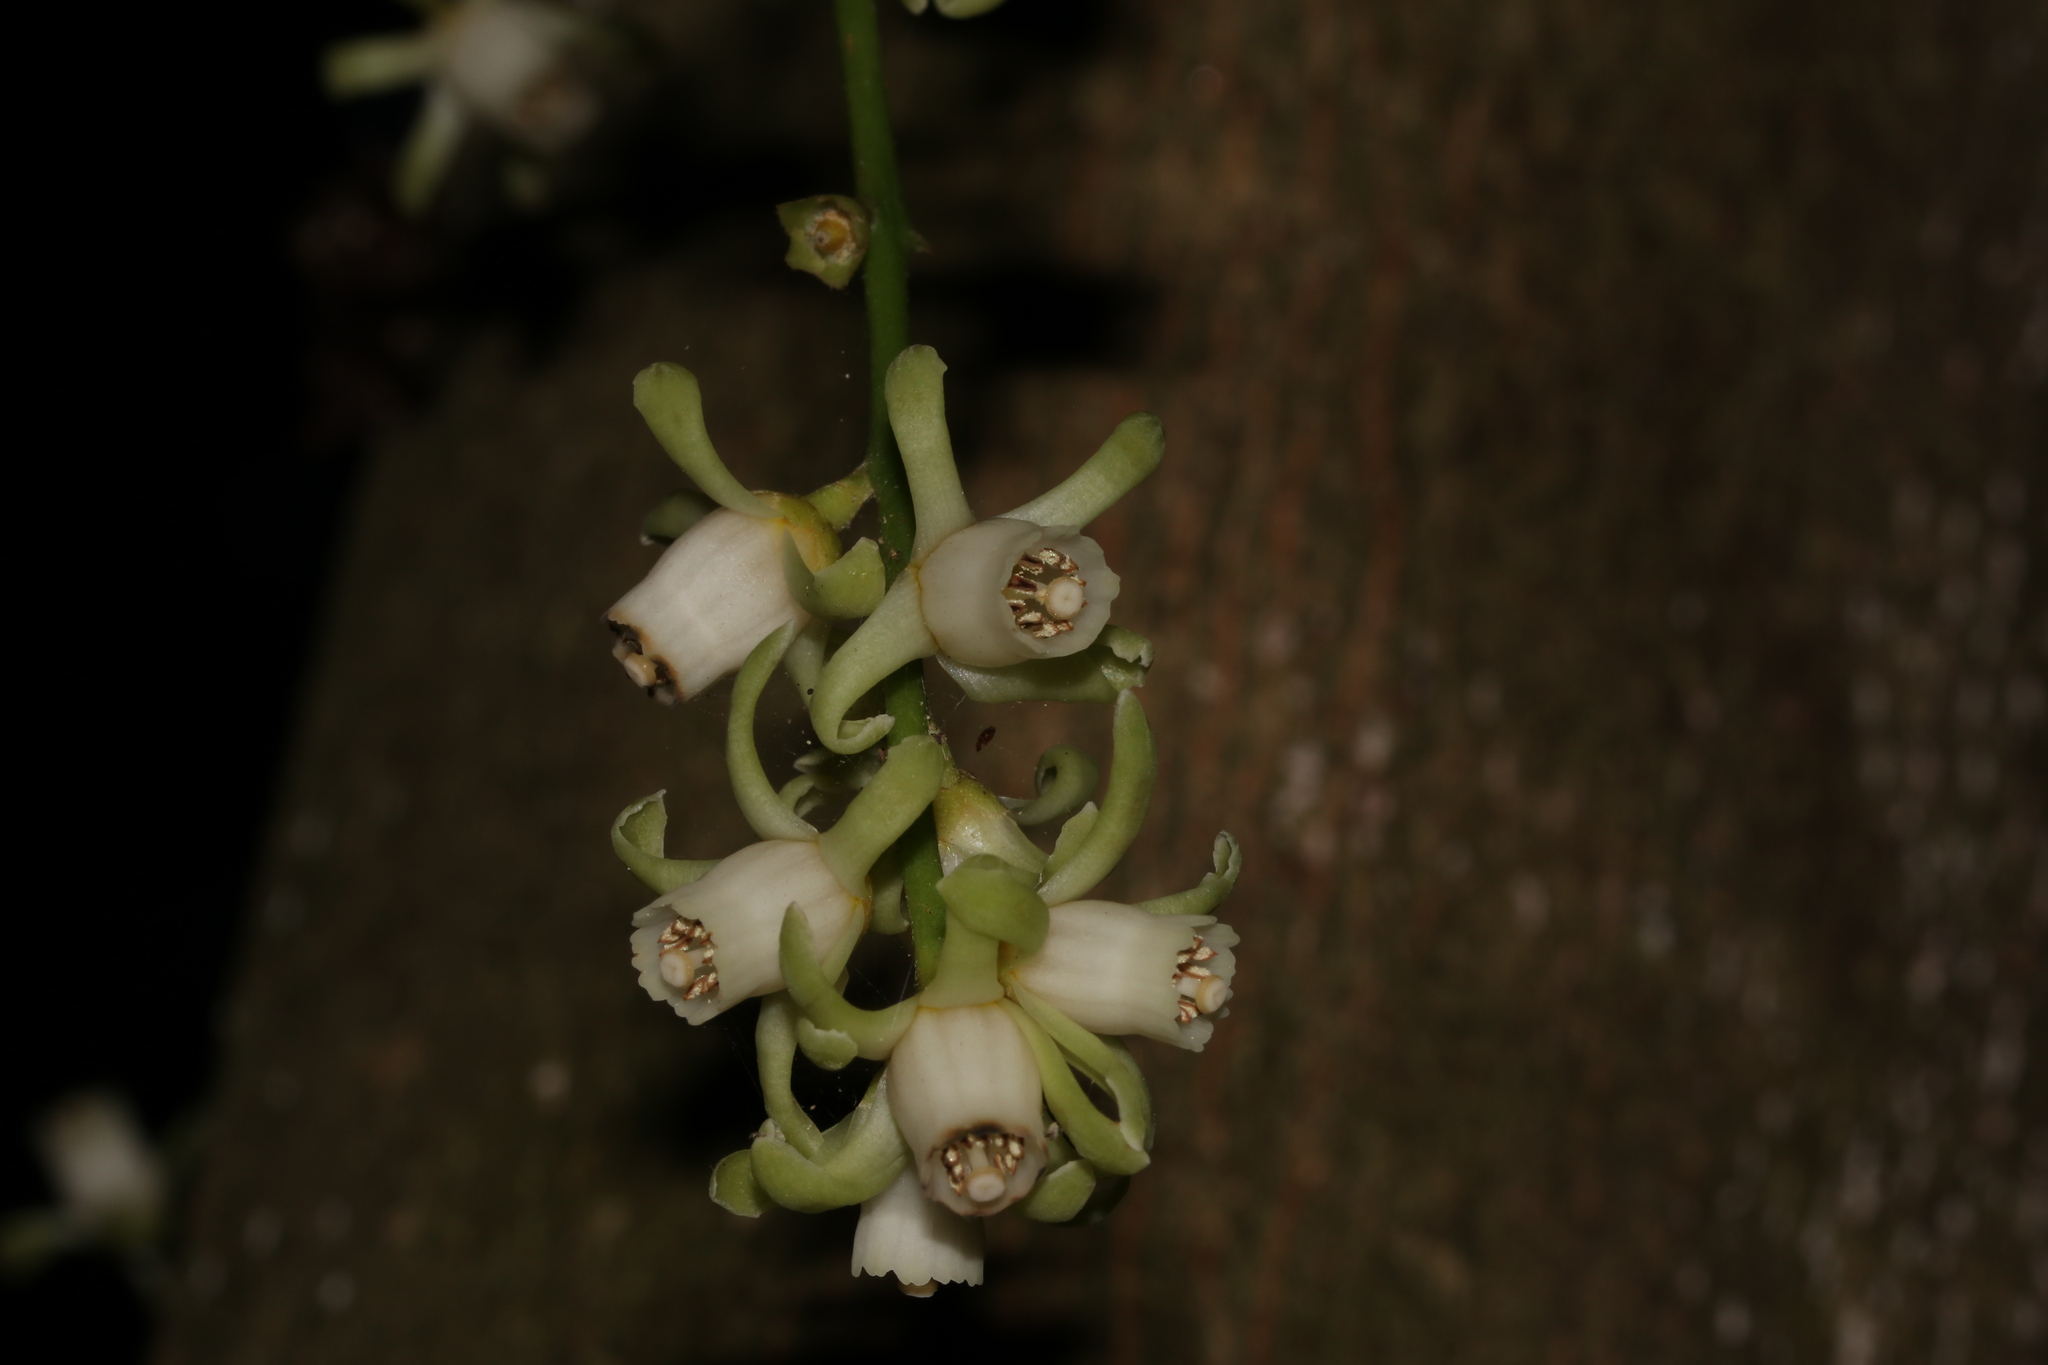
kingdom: Plantae
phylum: Tracheophyta
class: Magnoliopsida
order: Sapindales
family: Meliaceae
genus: Didymocheton
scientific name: Didymocheton spectabilis
